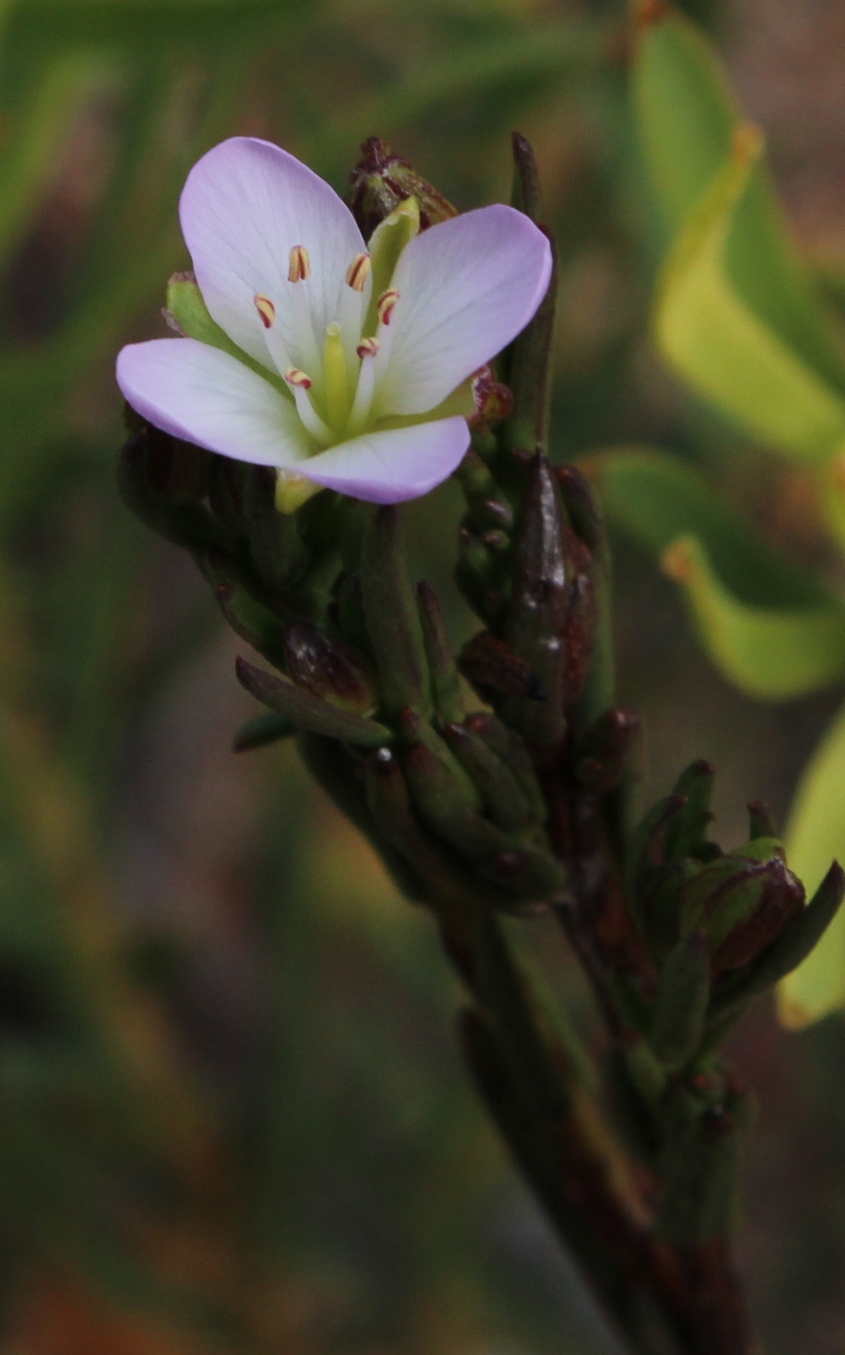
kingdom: Plantae
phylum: Tracheophyta
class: Magnoliopsida
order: Brassicales
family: Brassicaceae
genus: Heliophila
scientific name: Heliophila scoparia
